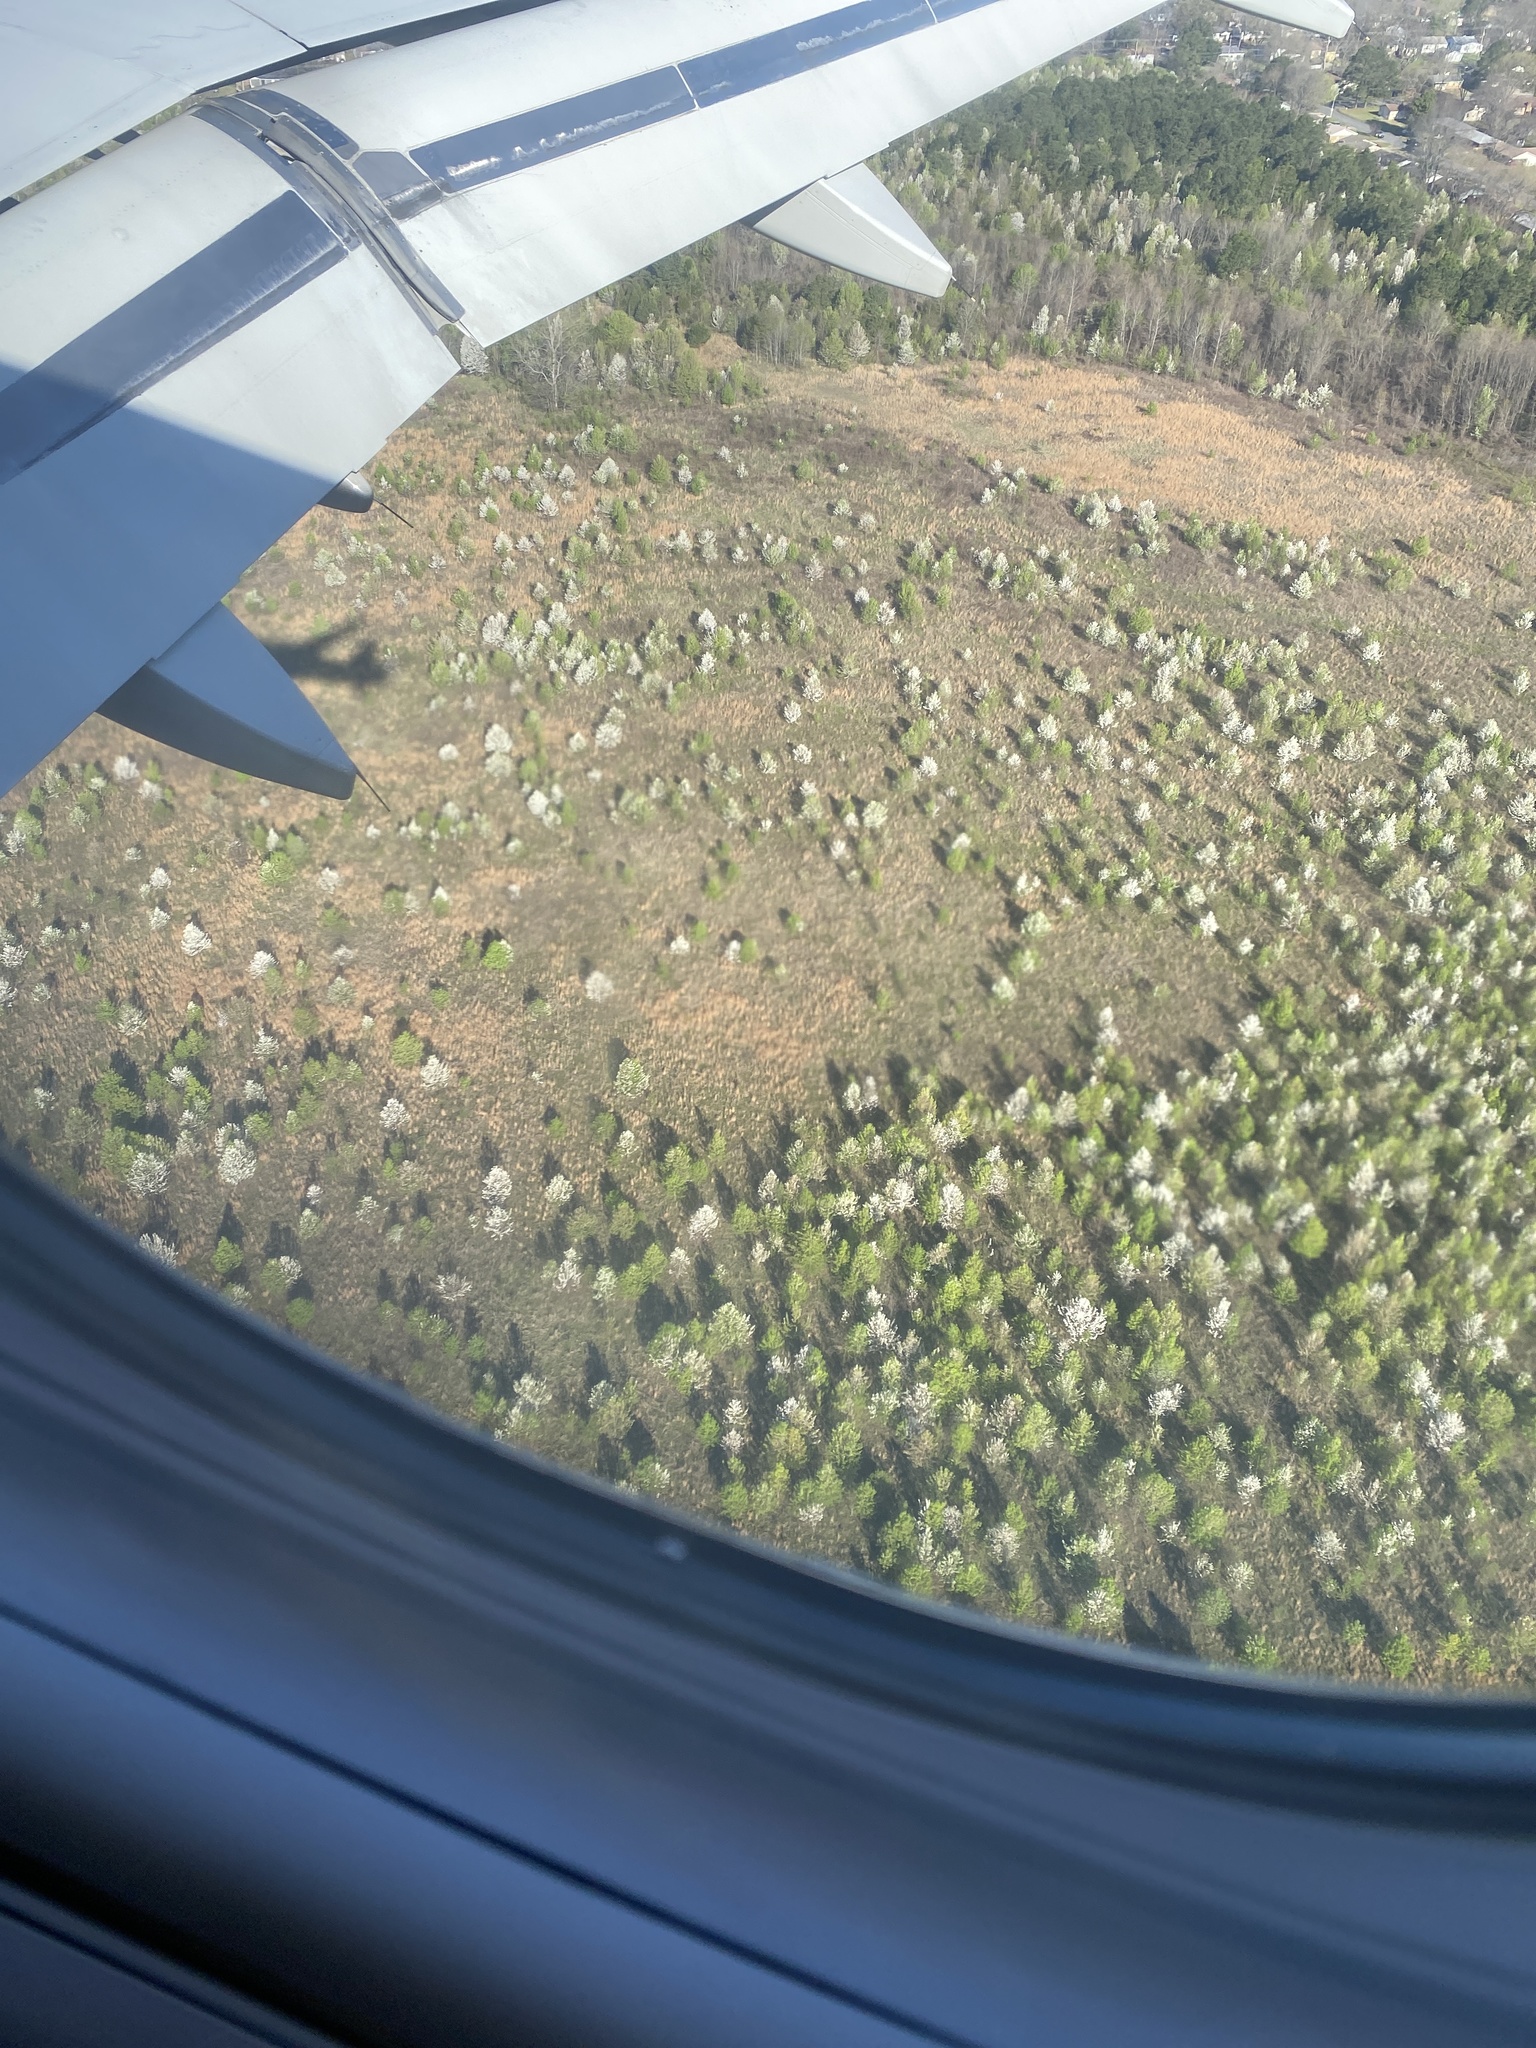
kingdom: Plantae
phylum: Tracheophyta
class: Magnoliopsida
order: Rosales
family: Rosaceae
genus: Pyrus
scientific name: Pyrus calleryana
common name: Callery pear
